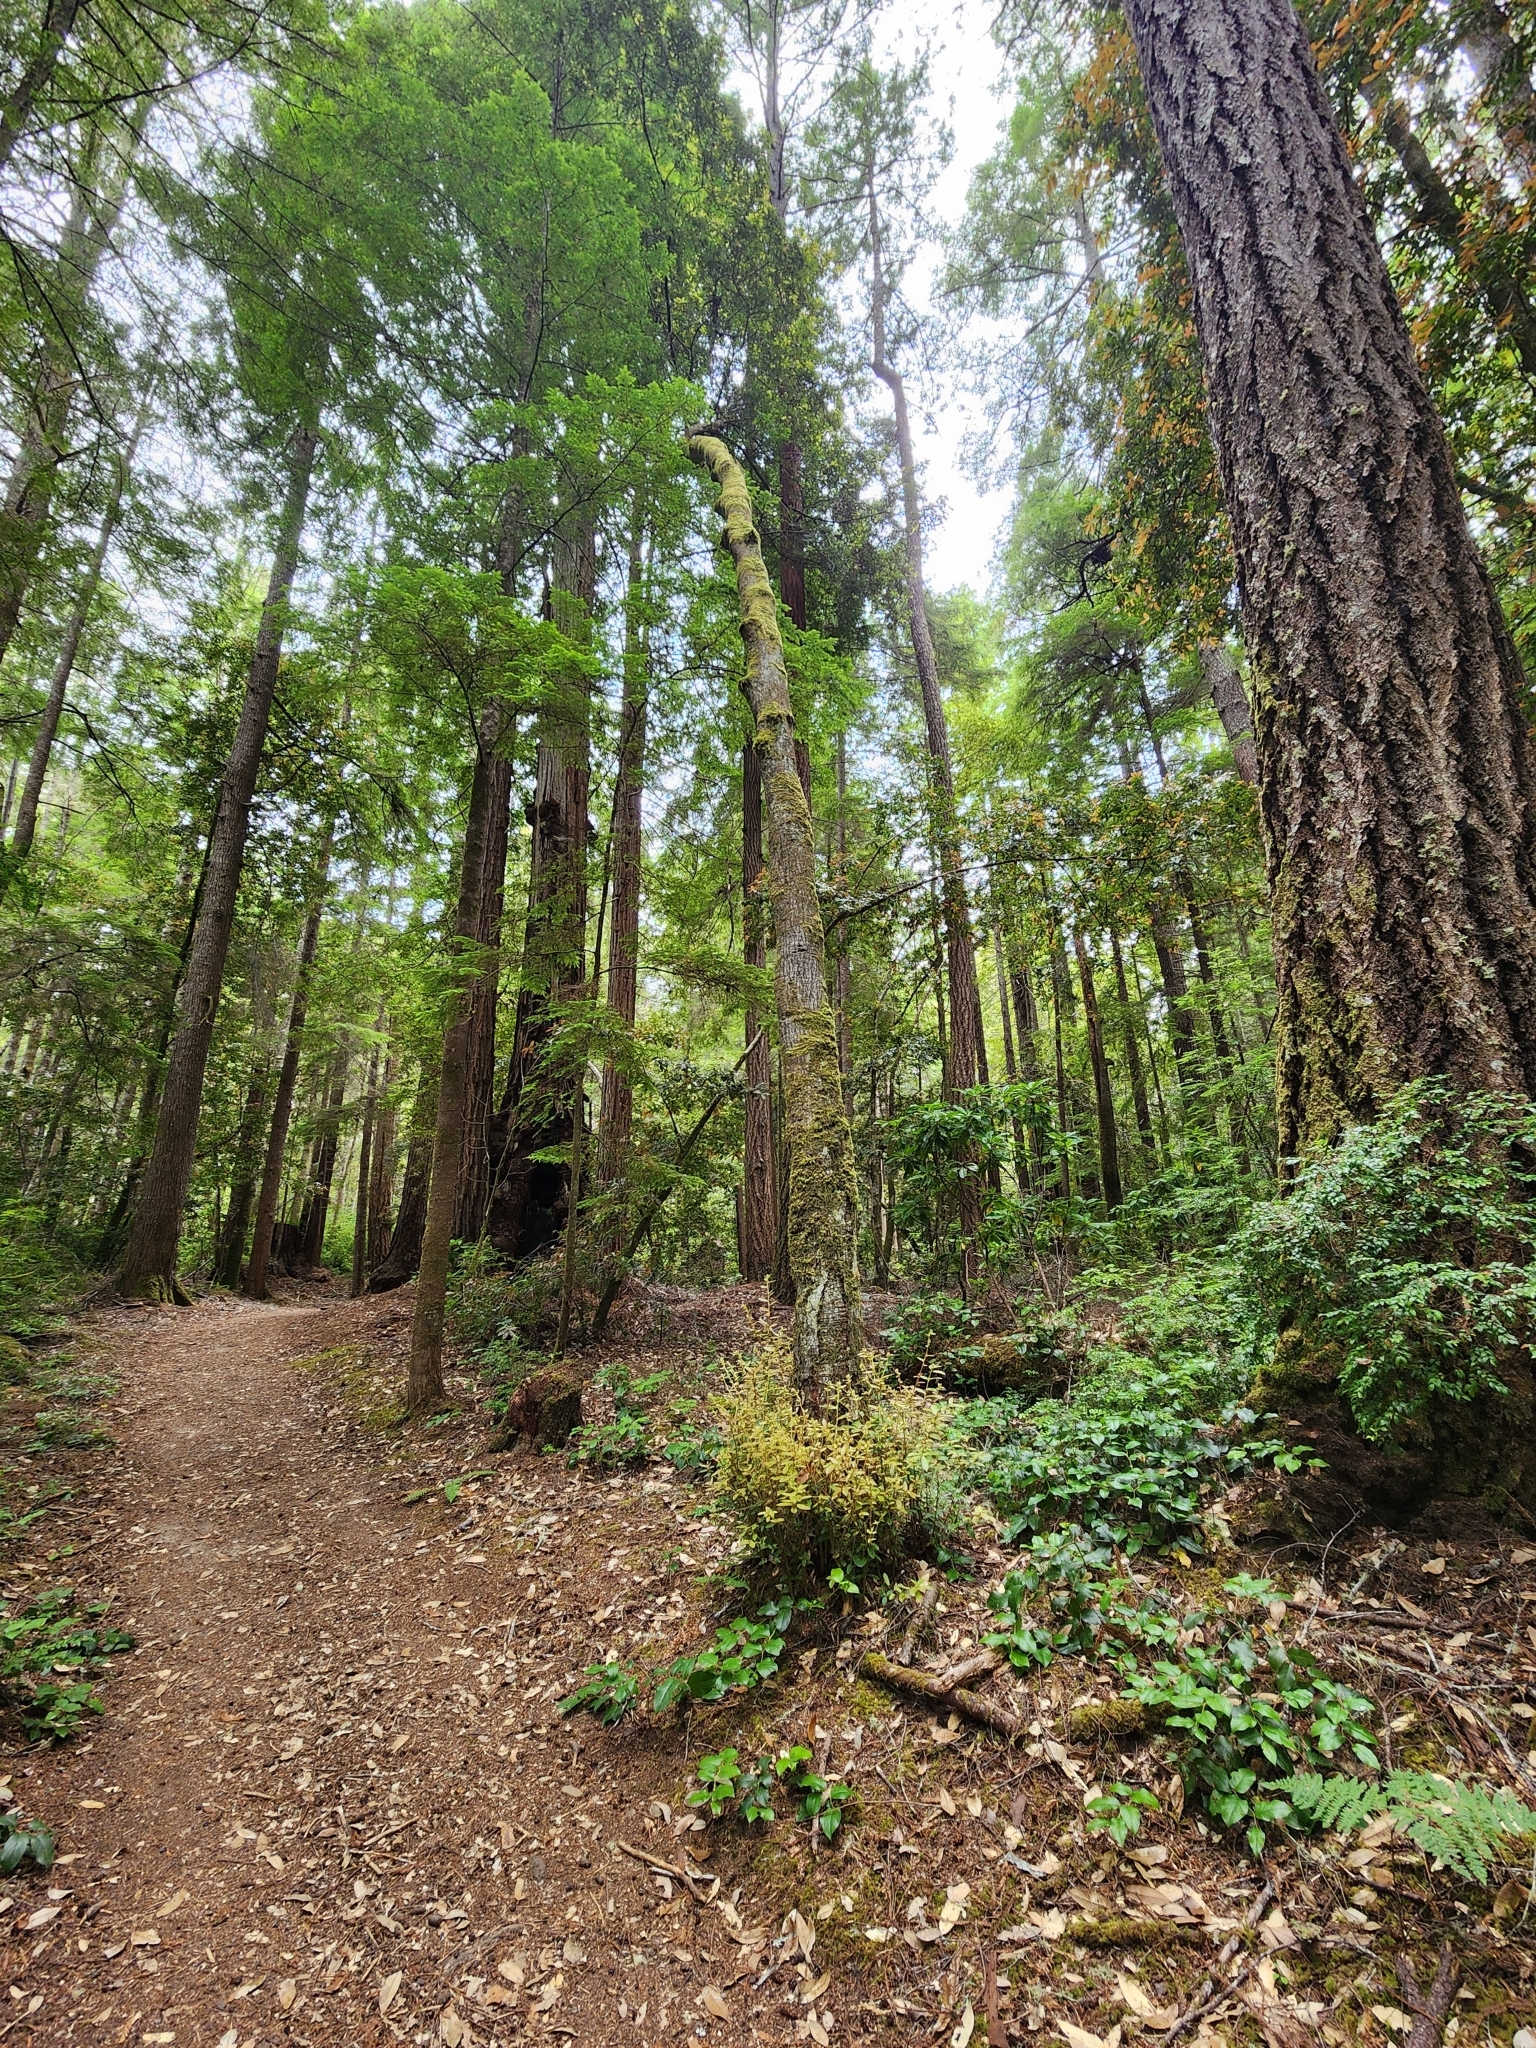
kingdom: Plantae
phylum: Tracheophyta
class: Magnoliopsida
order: Fagales
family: Fagaceae
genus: Notholithocarpus
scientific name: Notholithocarpus densiflorus
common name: Tan bark oak
